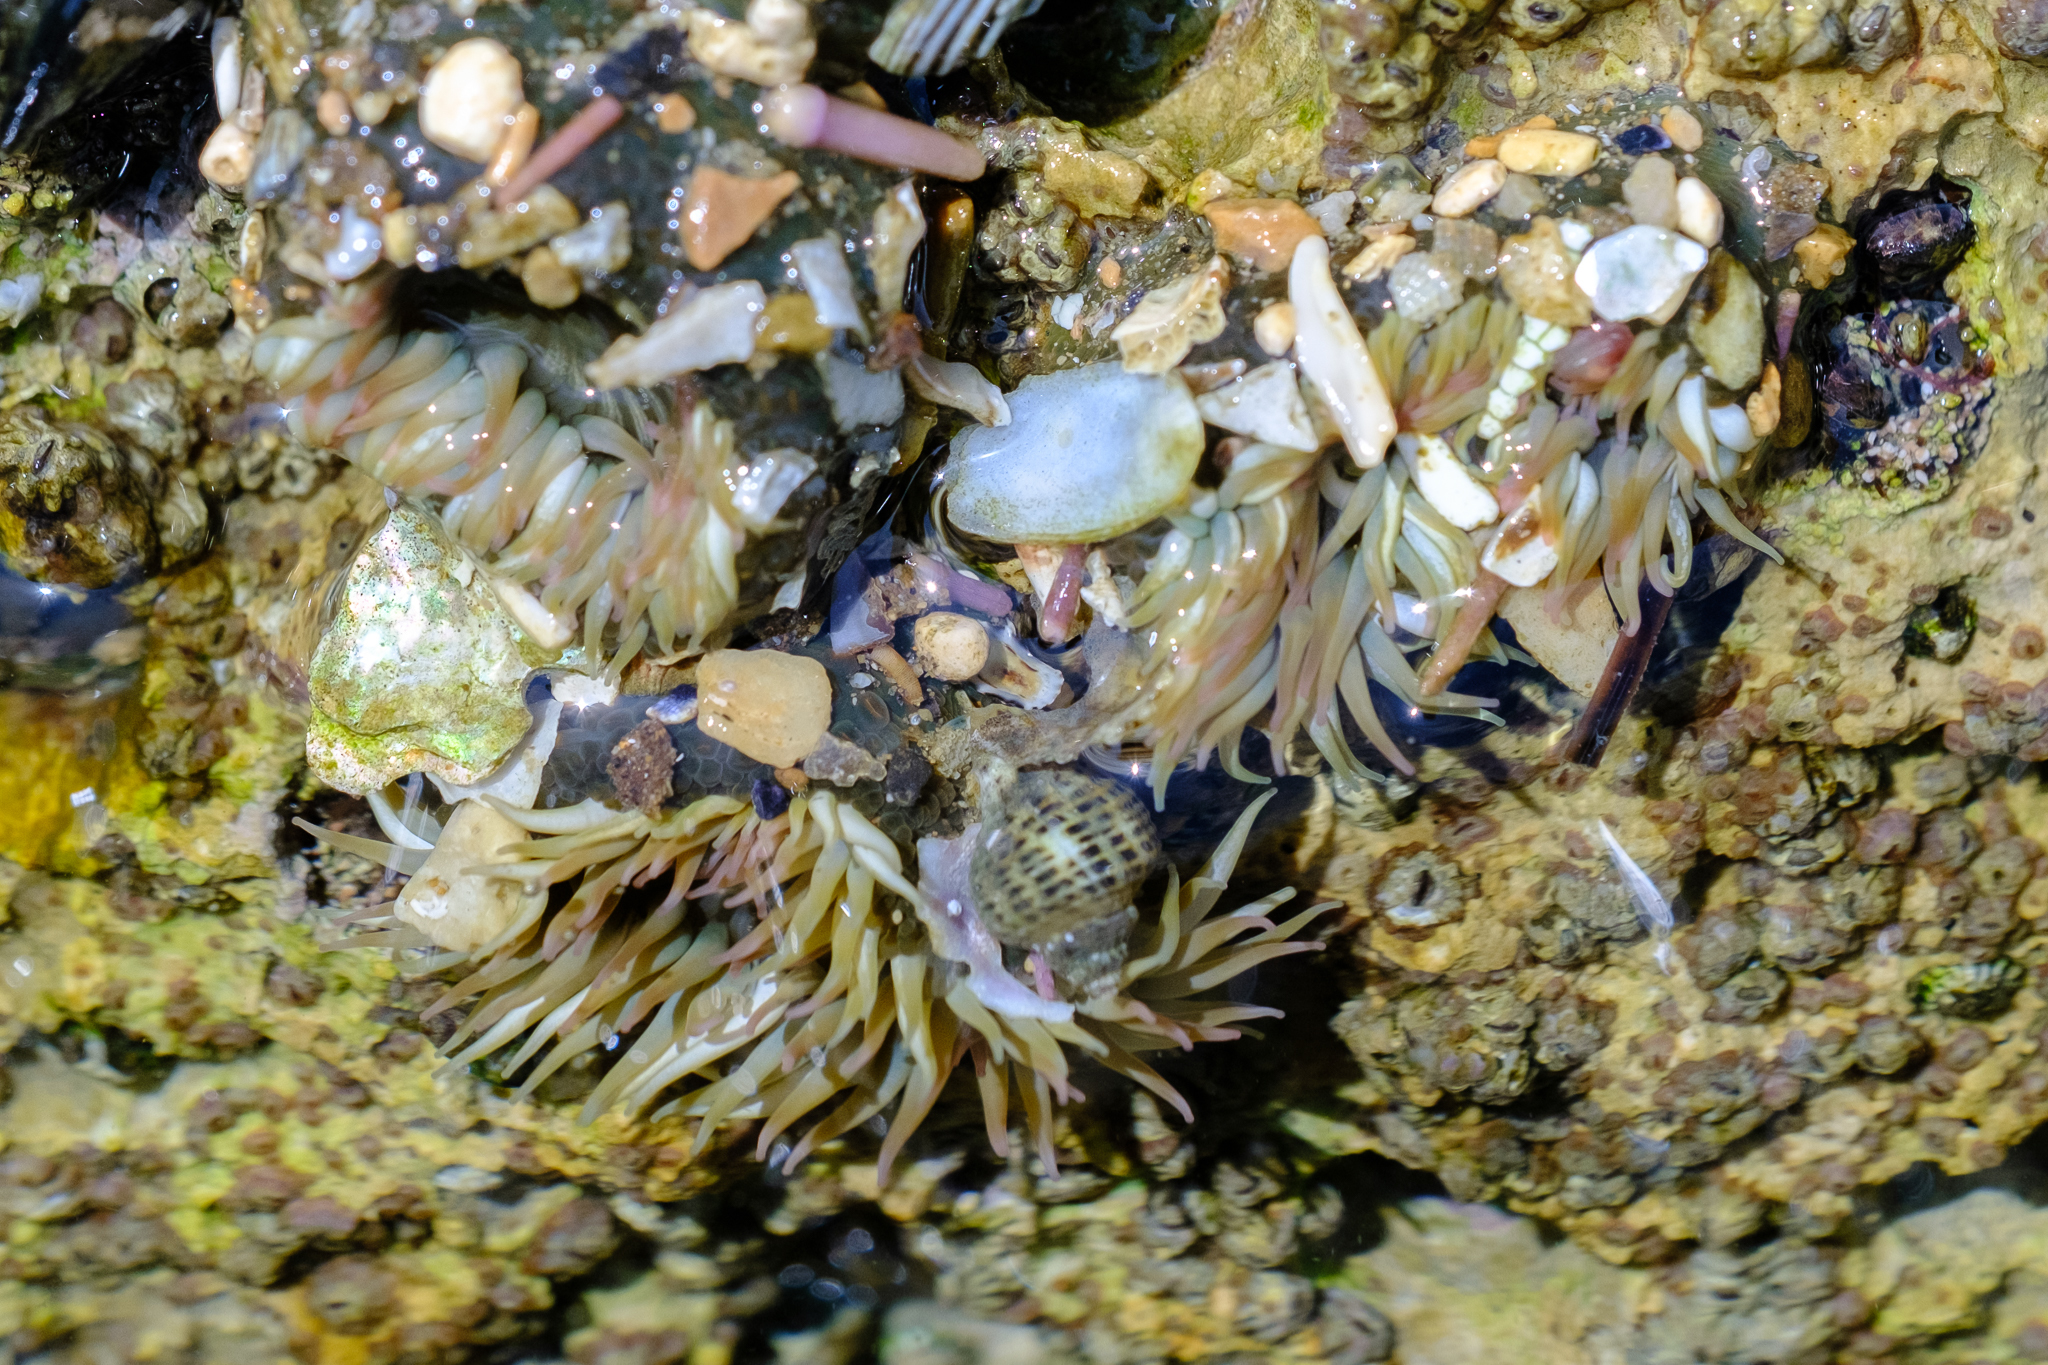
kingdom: Animalia
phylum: Cnidaria
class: Anthozoa
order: Actiniaria
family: Actiniidae
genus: Anthopleura
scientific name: Anthopleura elegantissima
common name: Clonal anemone
